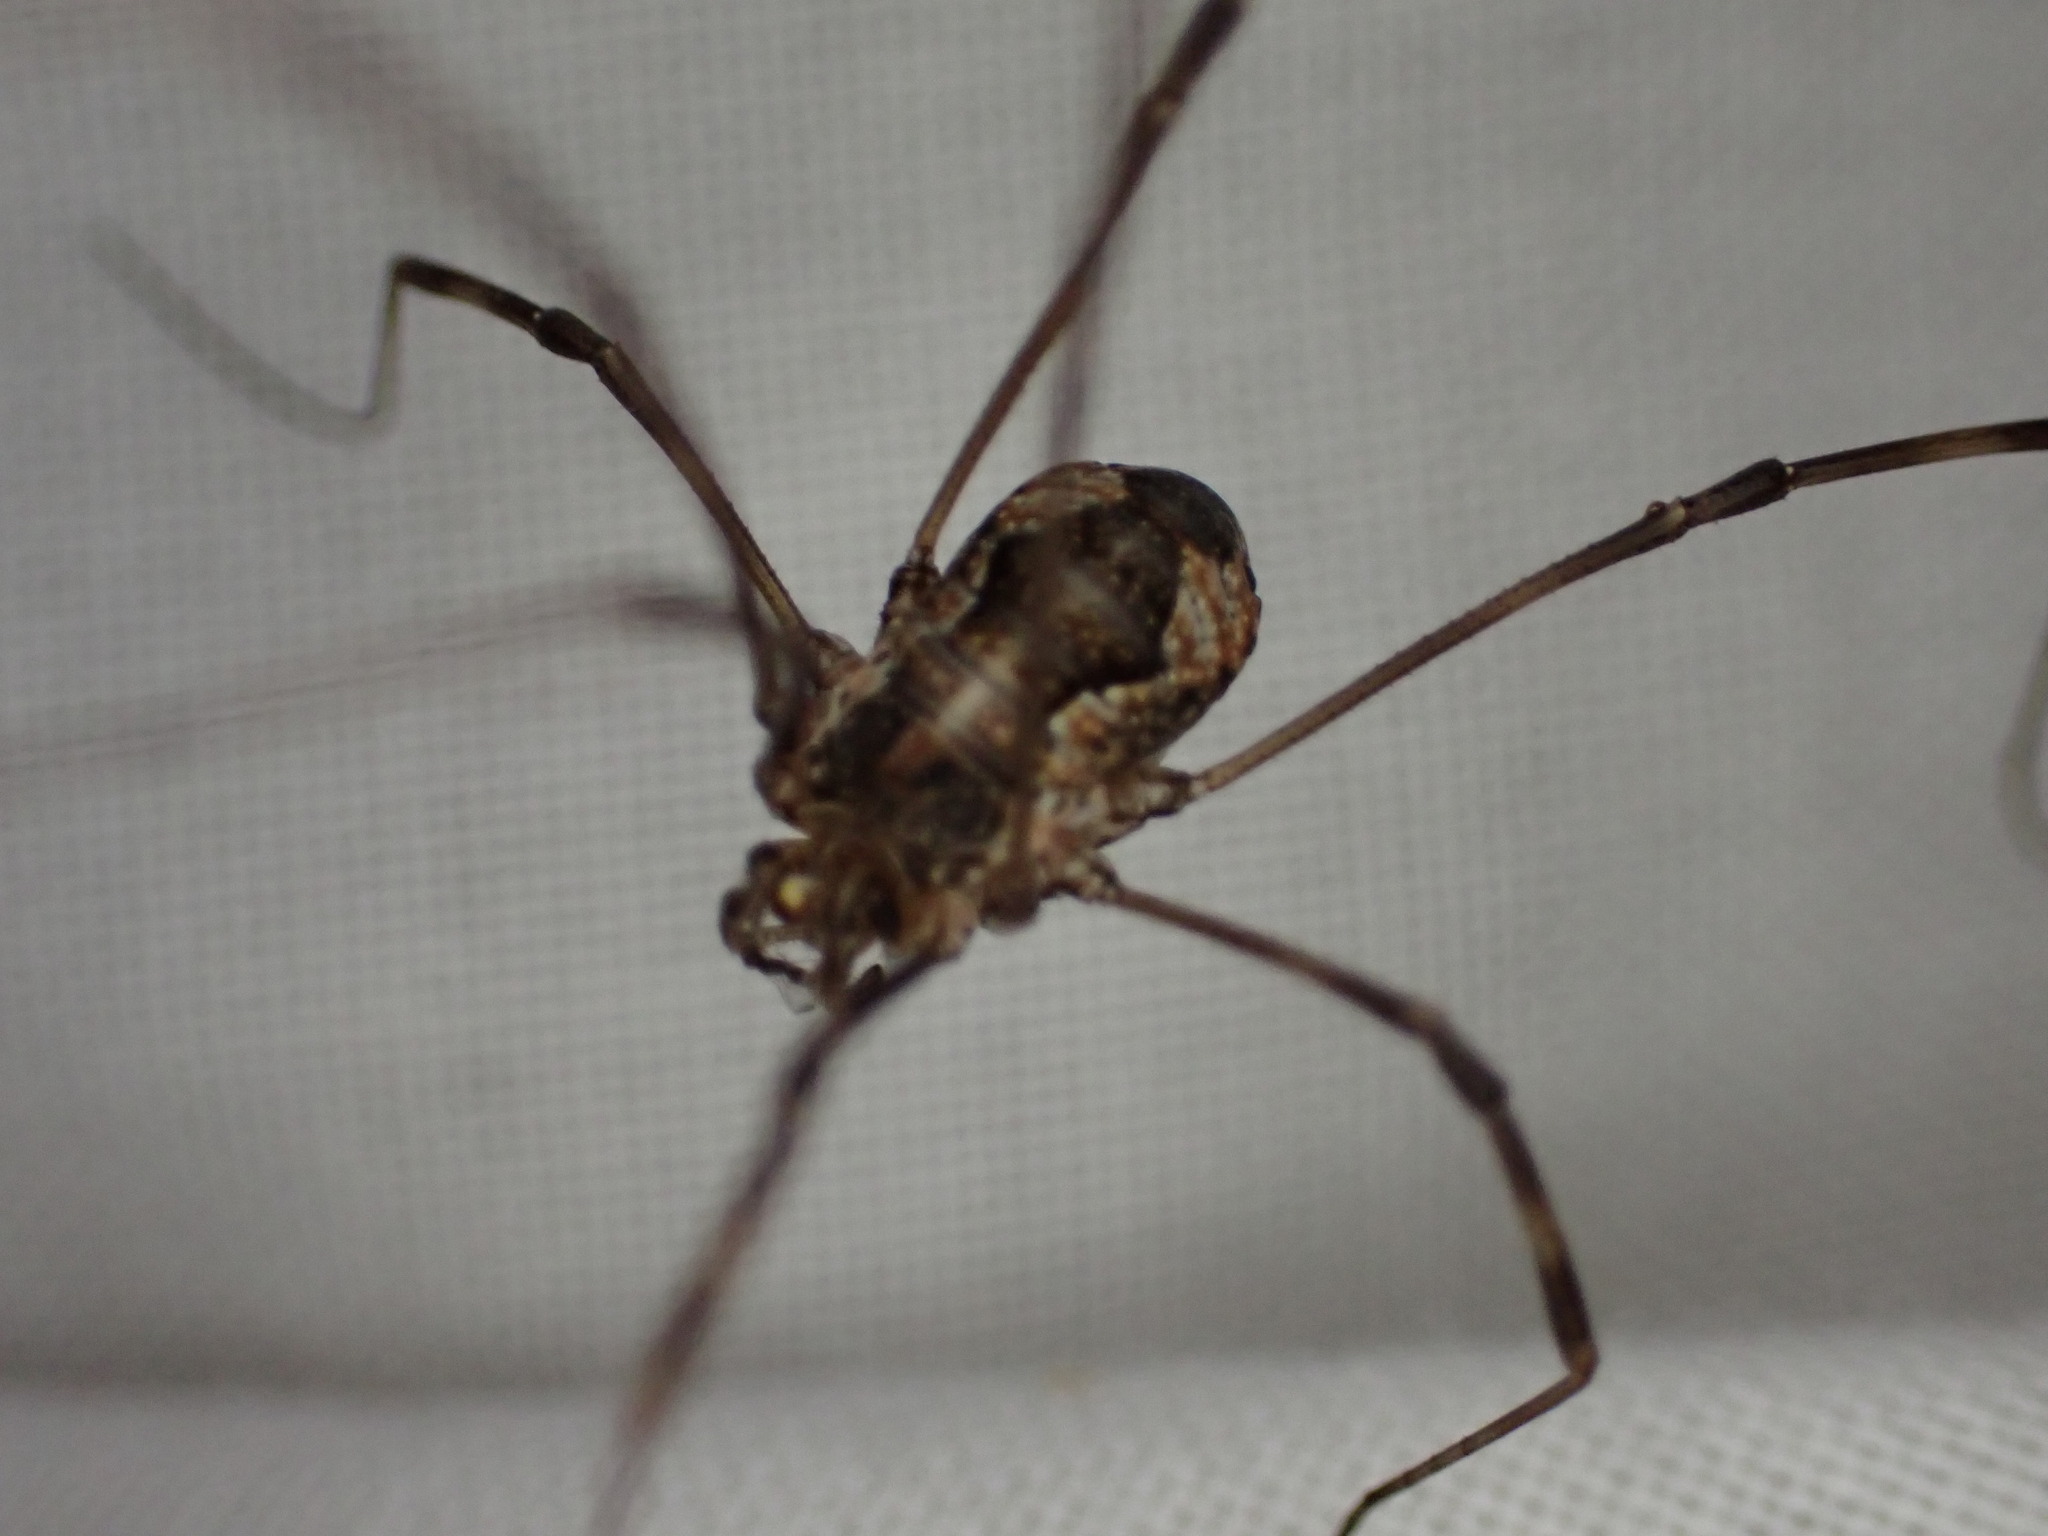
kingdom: Animalia
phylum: Arthropoda
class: Arachnida
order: Opiliones
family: Phalangiidae
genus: Dasylobus
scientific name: Dasylobus graniferus
